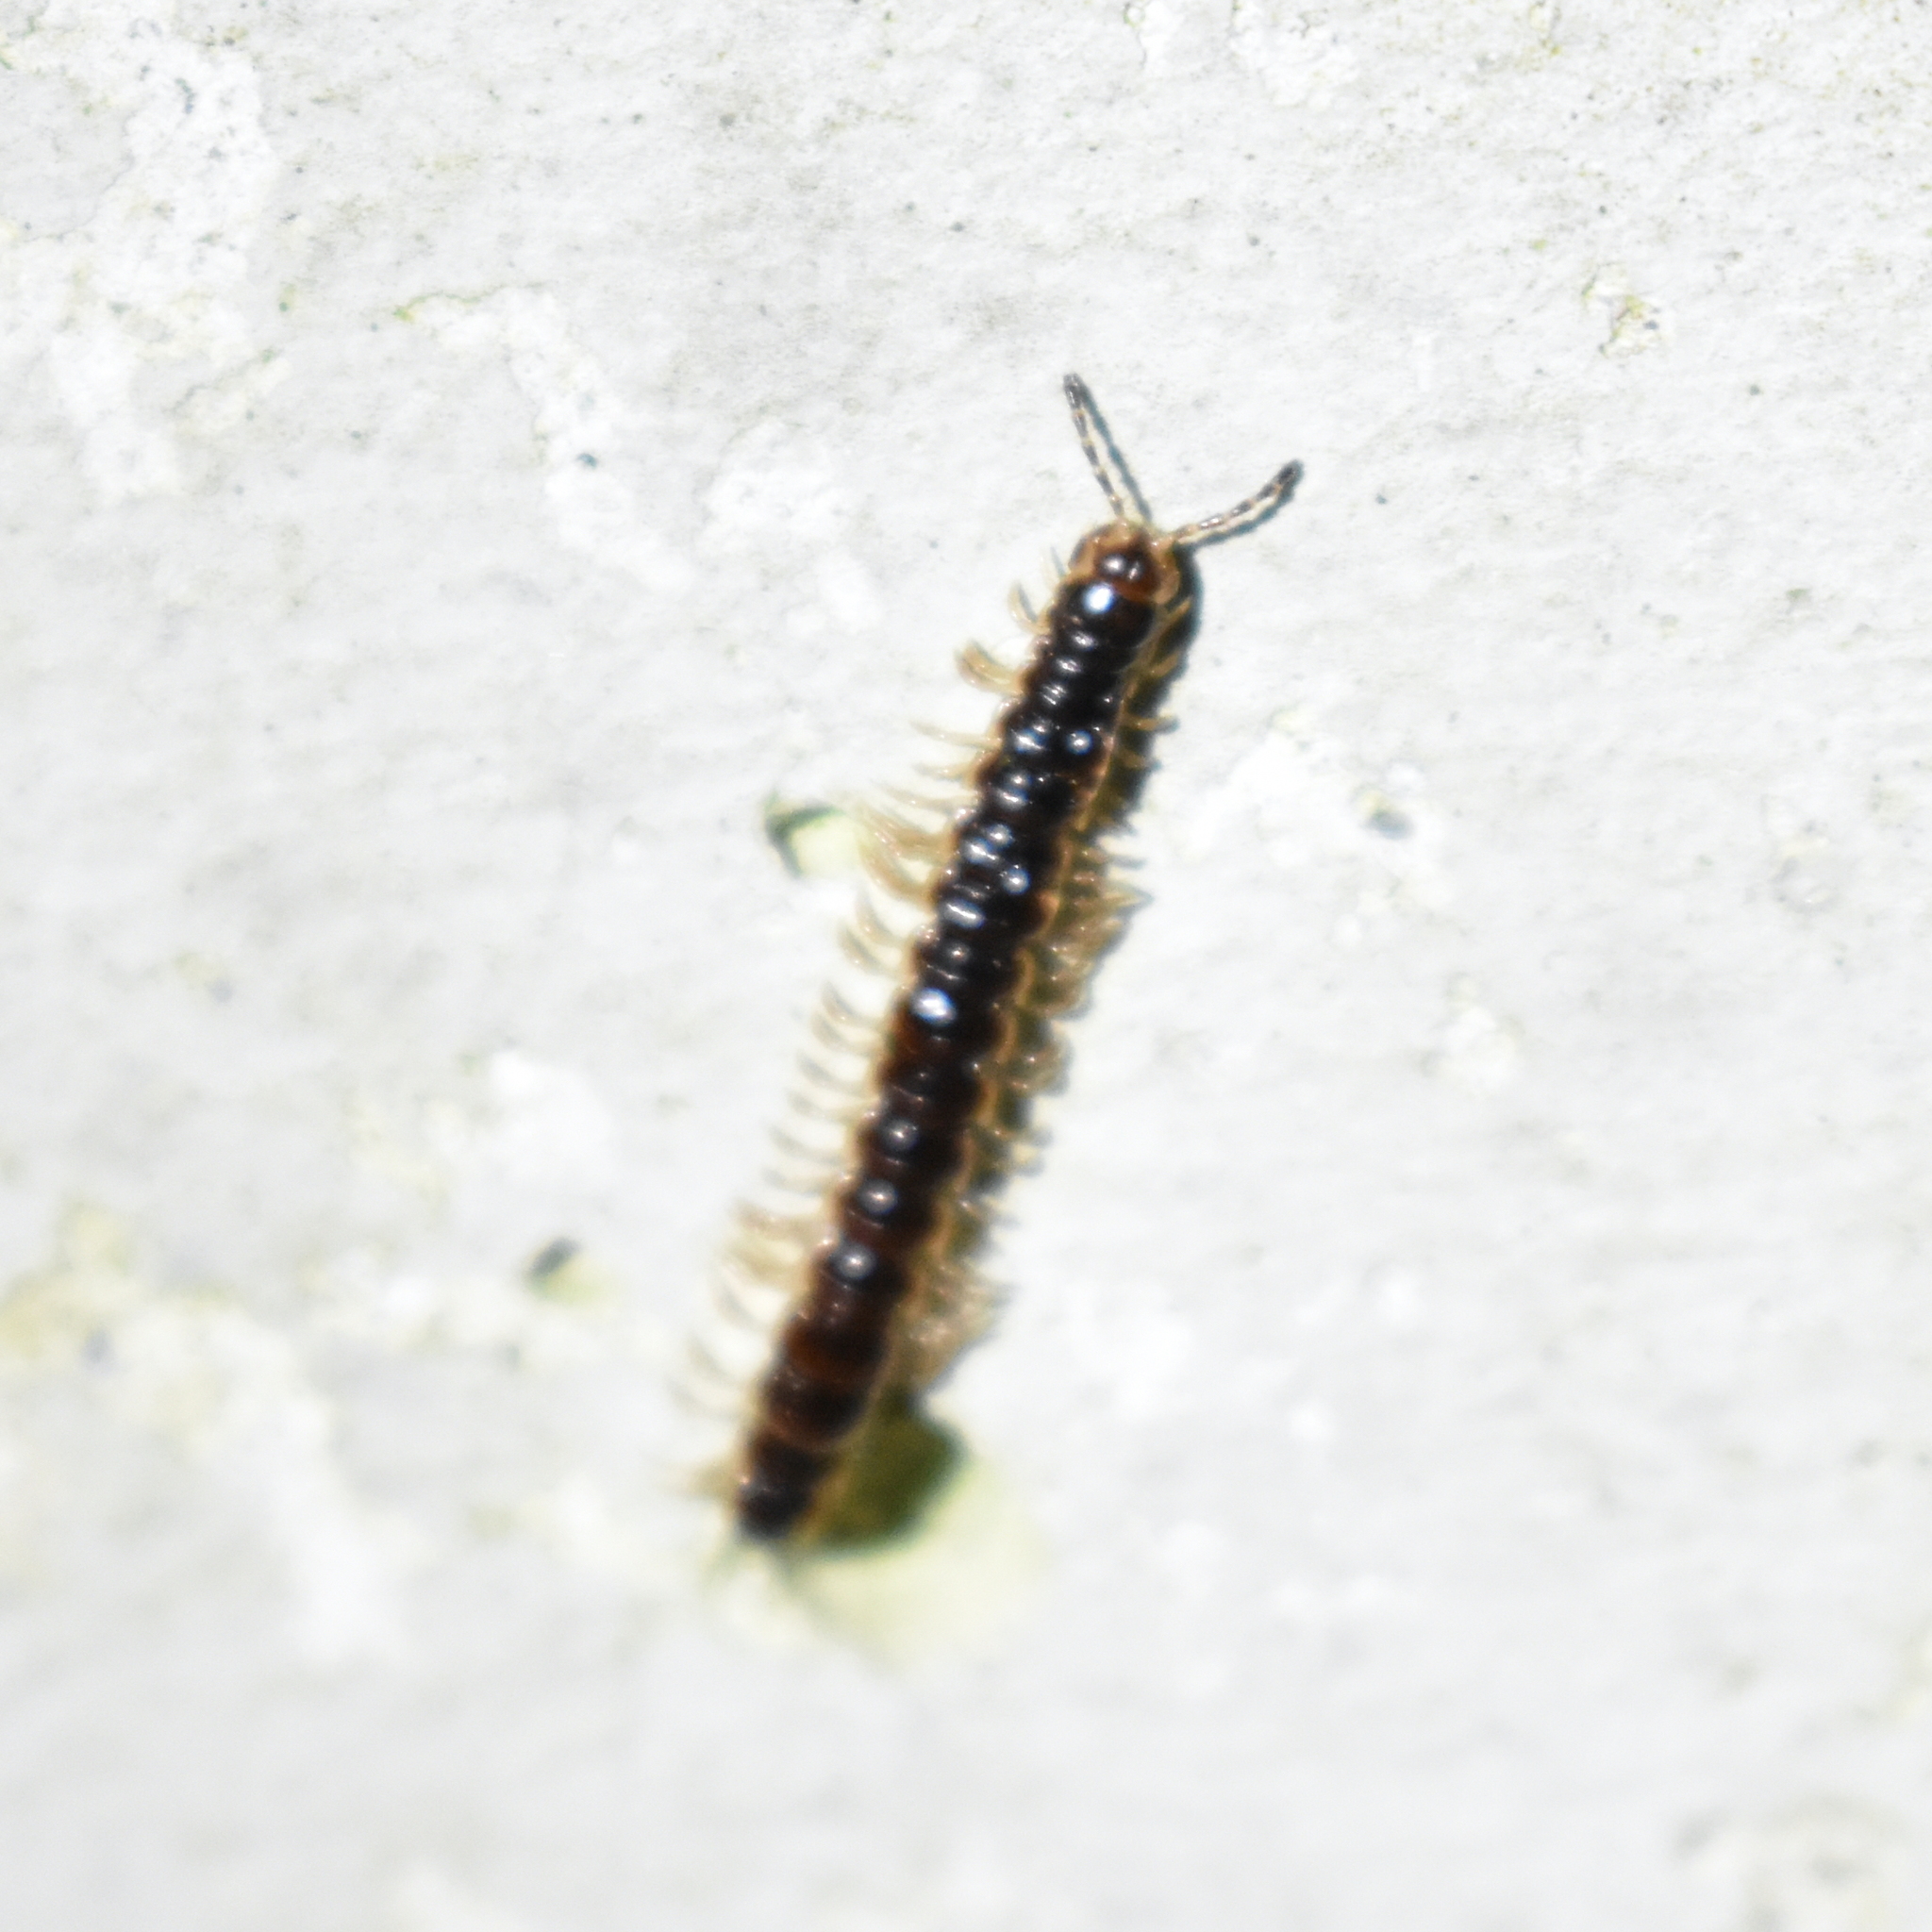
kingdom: Animalia
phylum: Arthropoda
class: Diplopoda
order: Polydesmida
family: Paradoxosomatidae
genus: Oxidus
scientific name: Oxidus gracilis
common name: Greenhouse millipede
